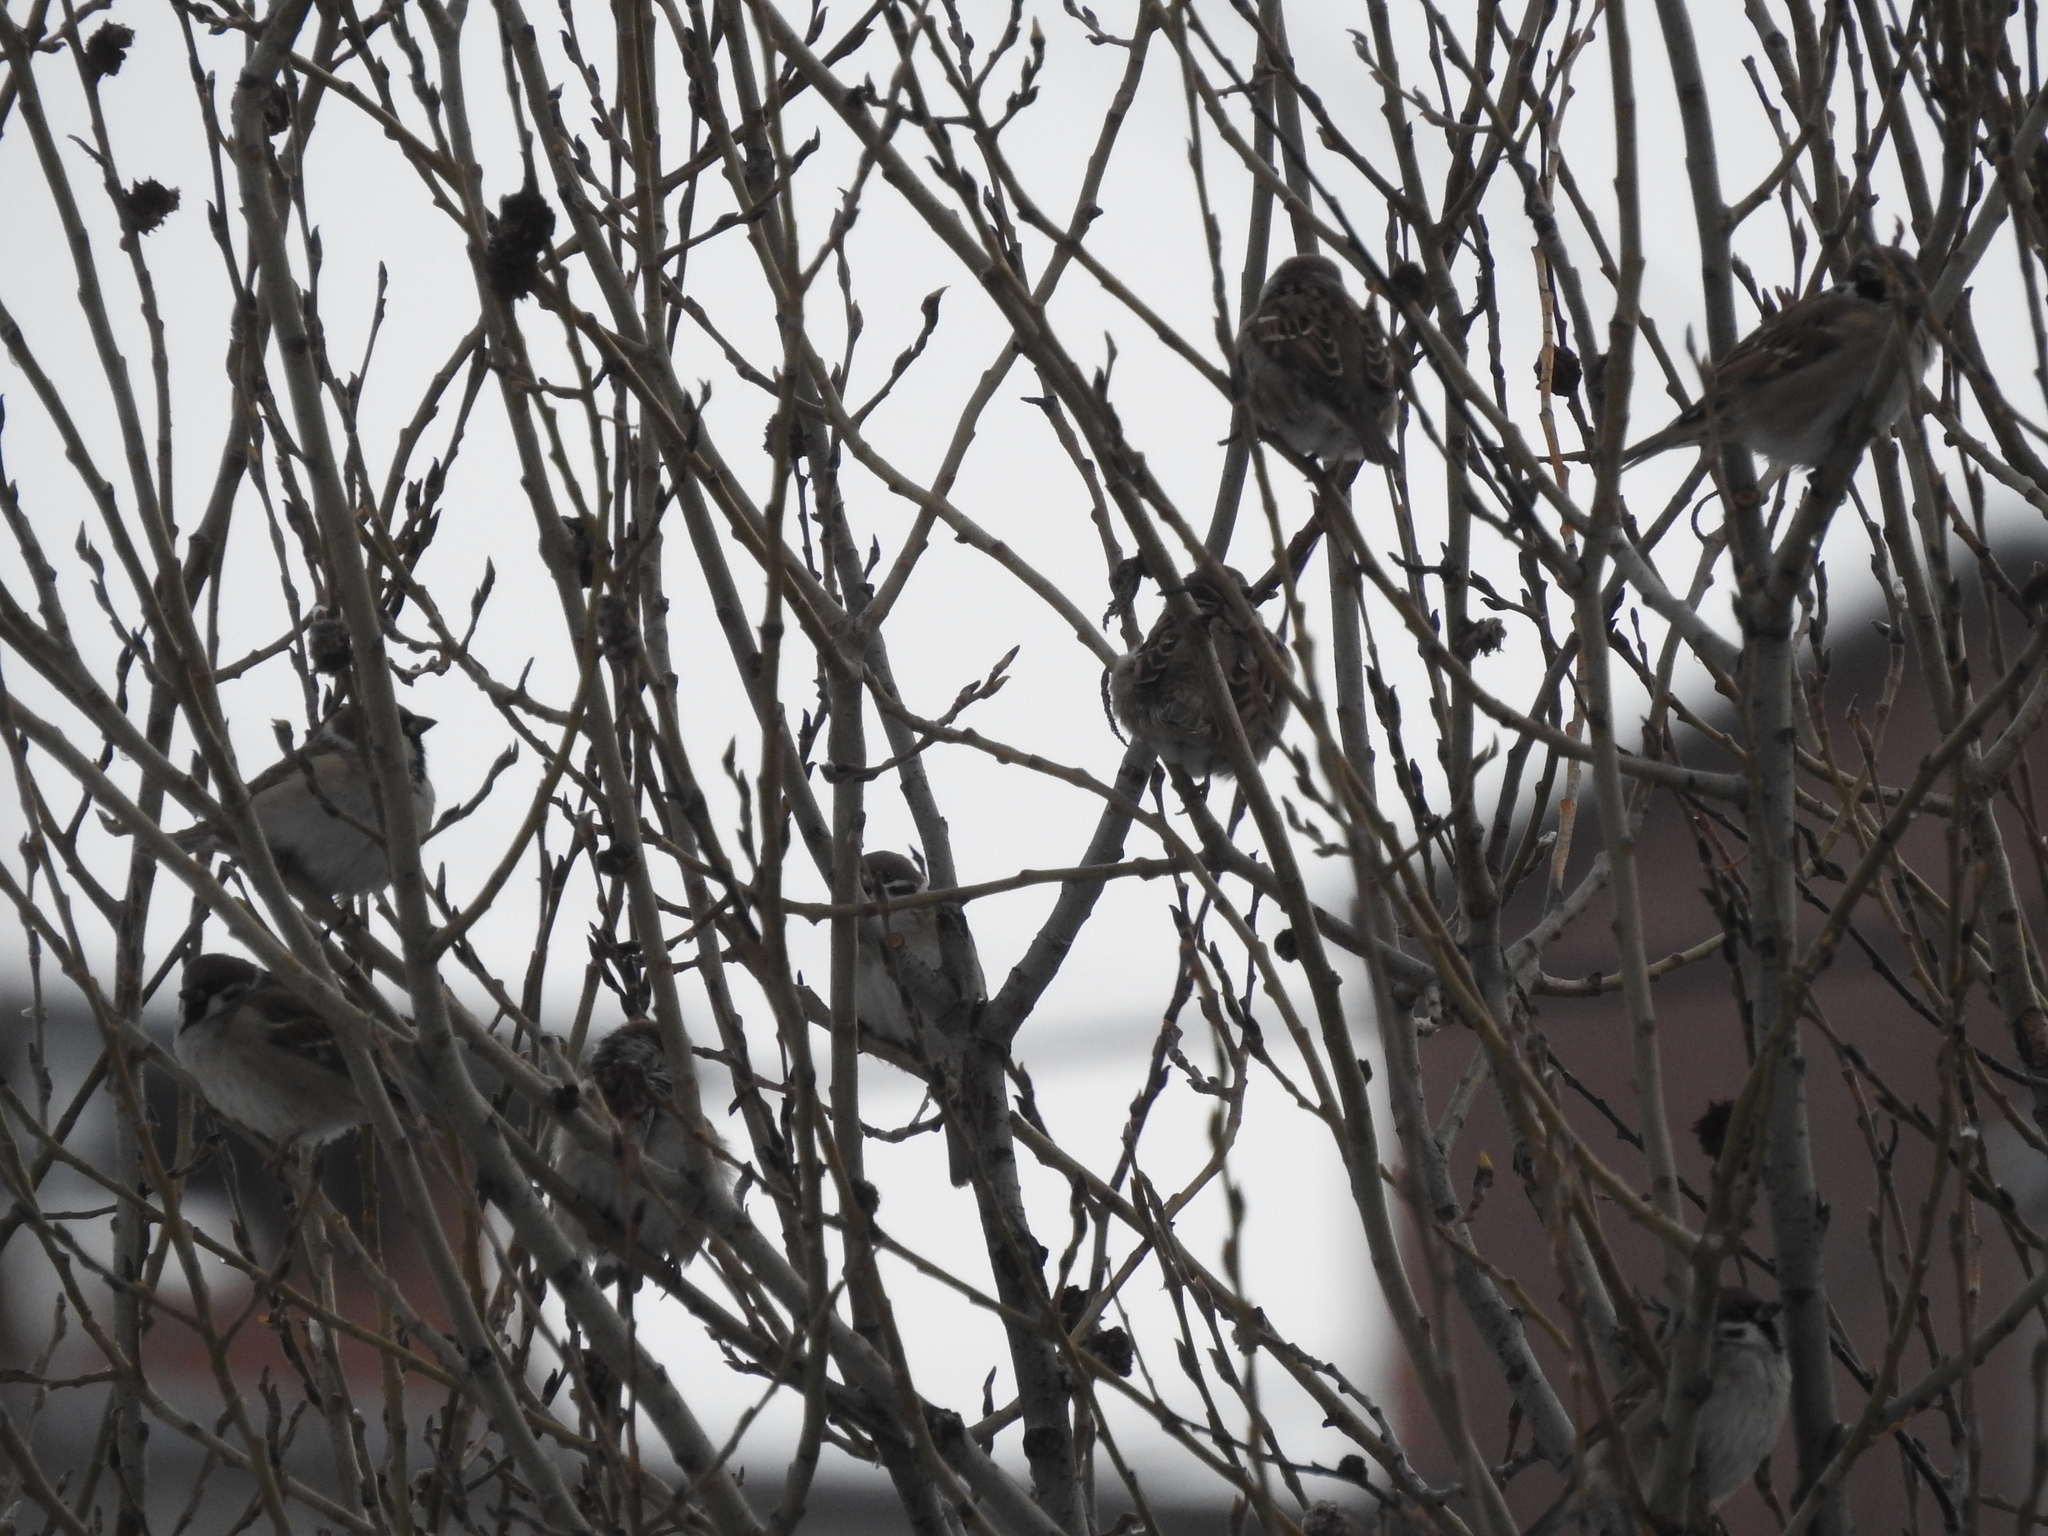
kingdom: Animalia
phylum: Chordata
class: Aves
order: Passeriformes
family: Passeridae
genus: Passer
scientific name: Passer montanus
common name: Eurasian tree sparrow
